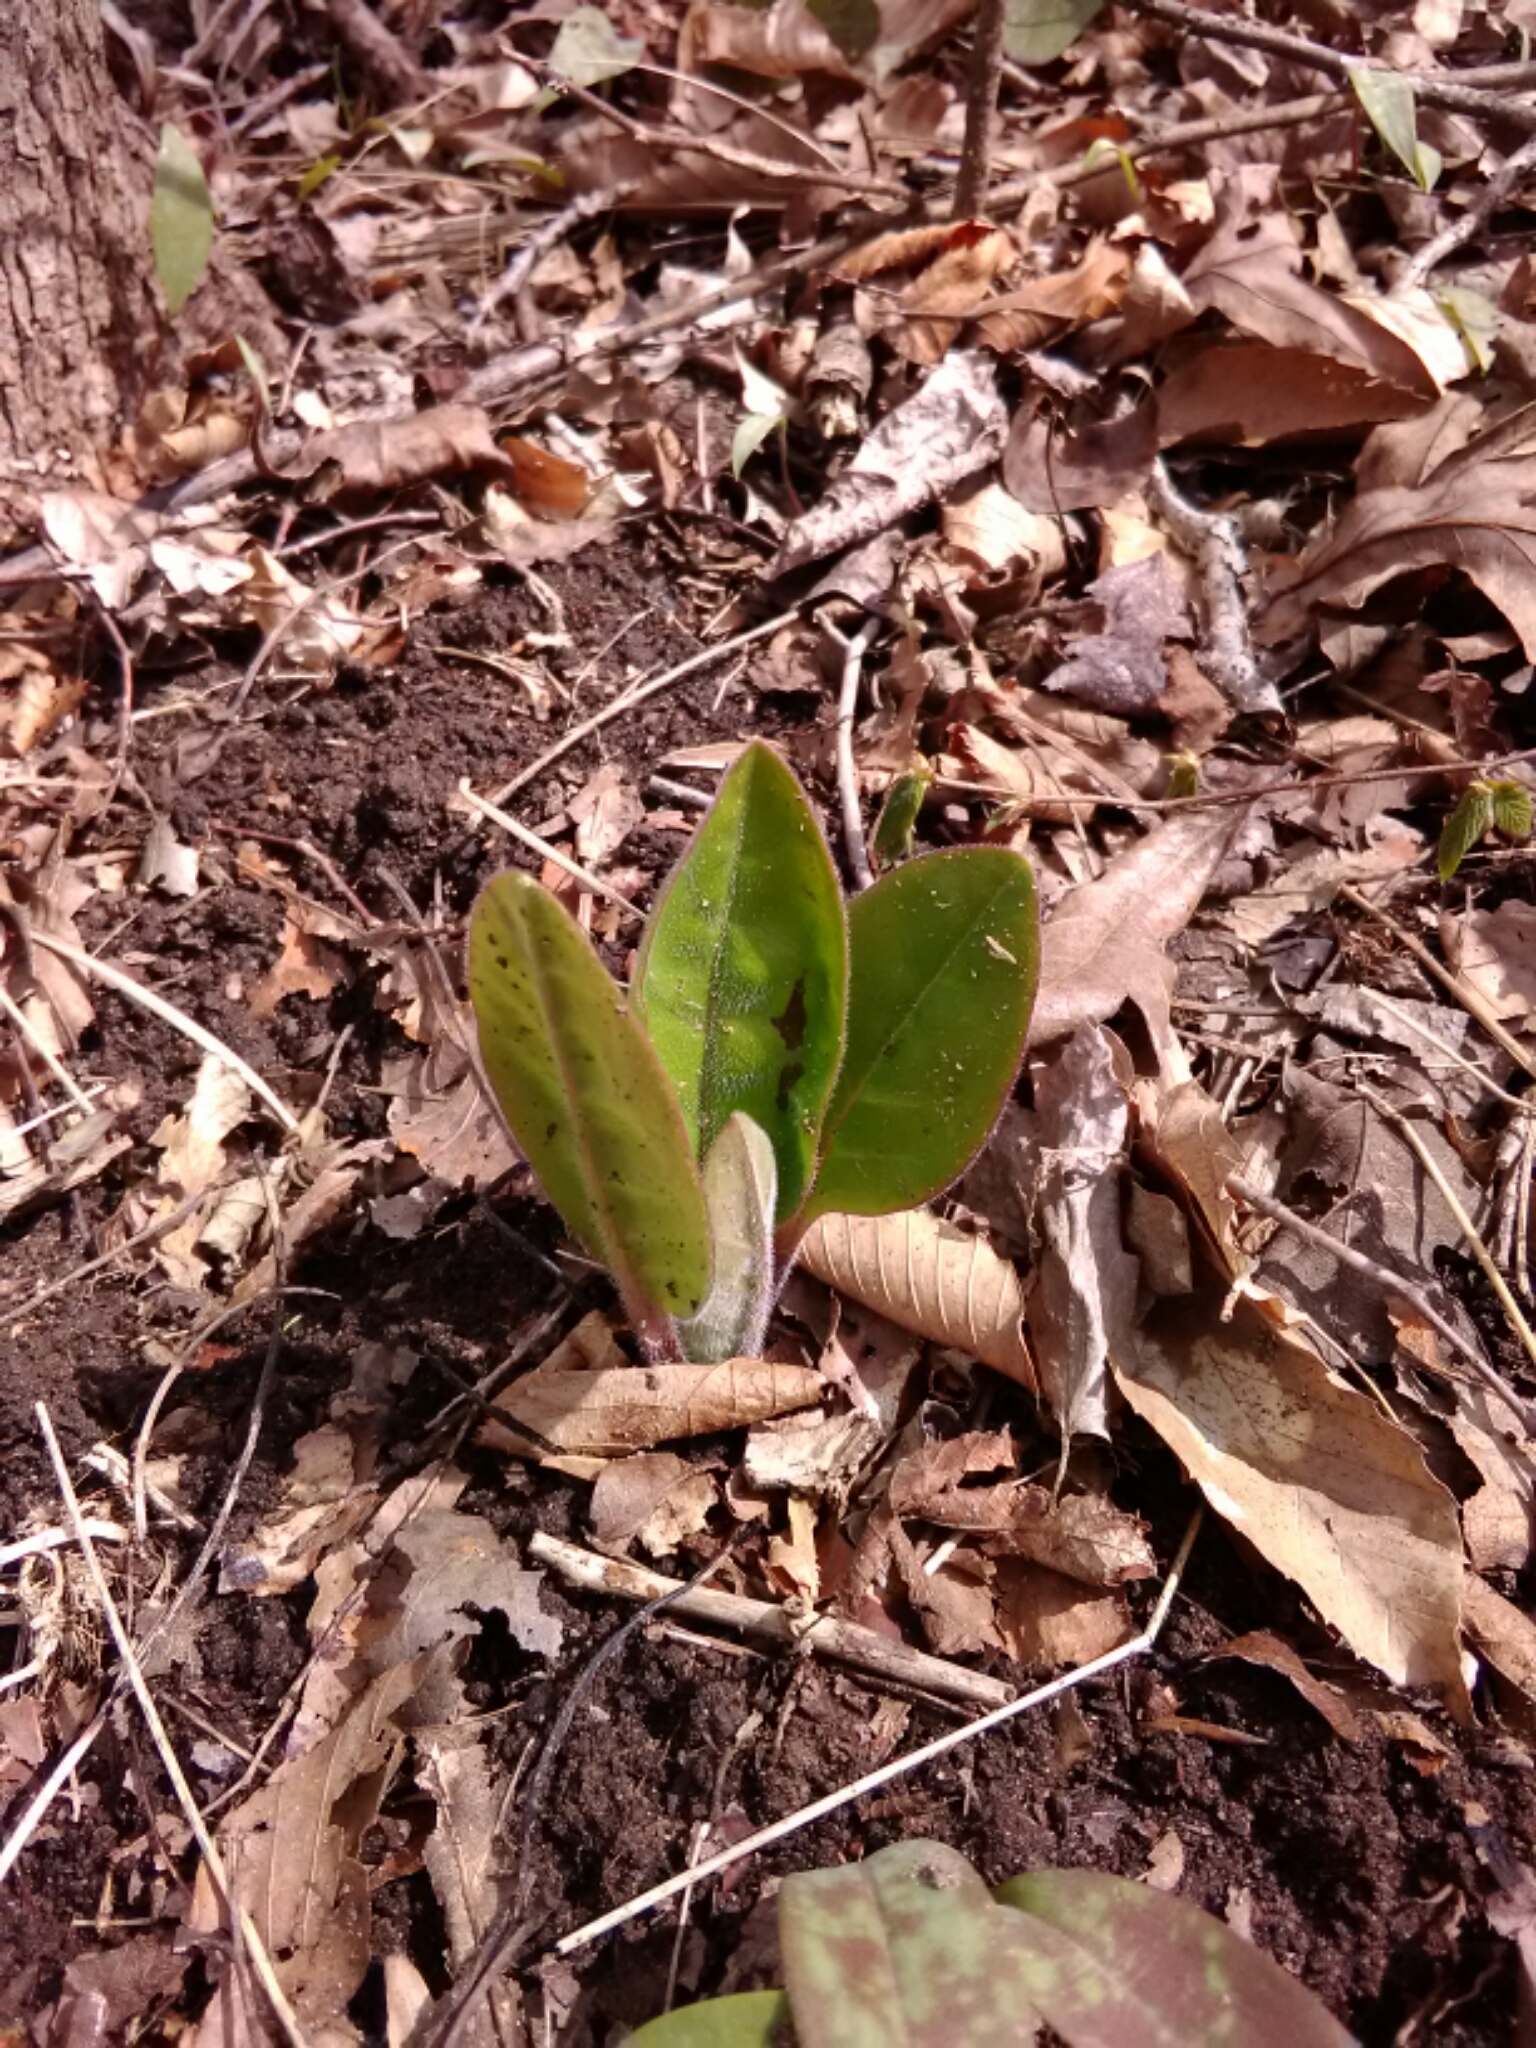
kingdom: Plantae
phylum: Tracheophyta
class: Magnoliopsida
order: Boraginales
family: Boraginaceae
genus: Andersonglossum
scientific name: Andersonglossum virginianum
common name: Wild comfrey
